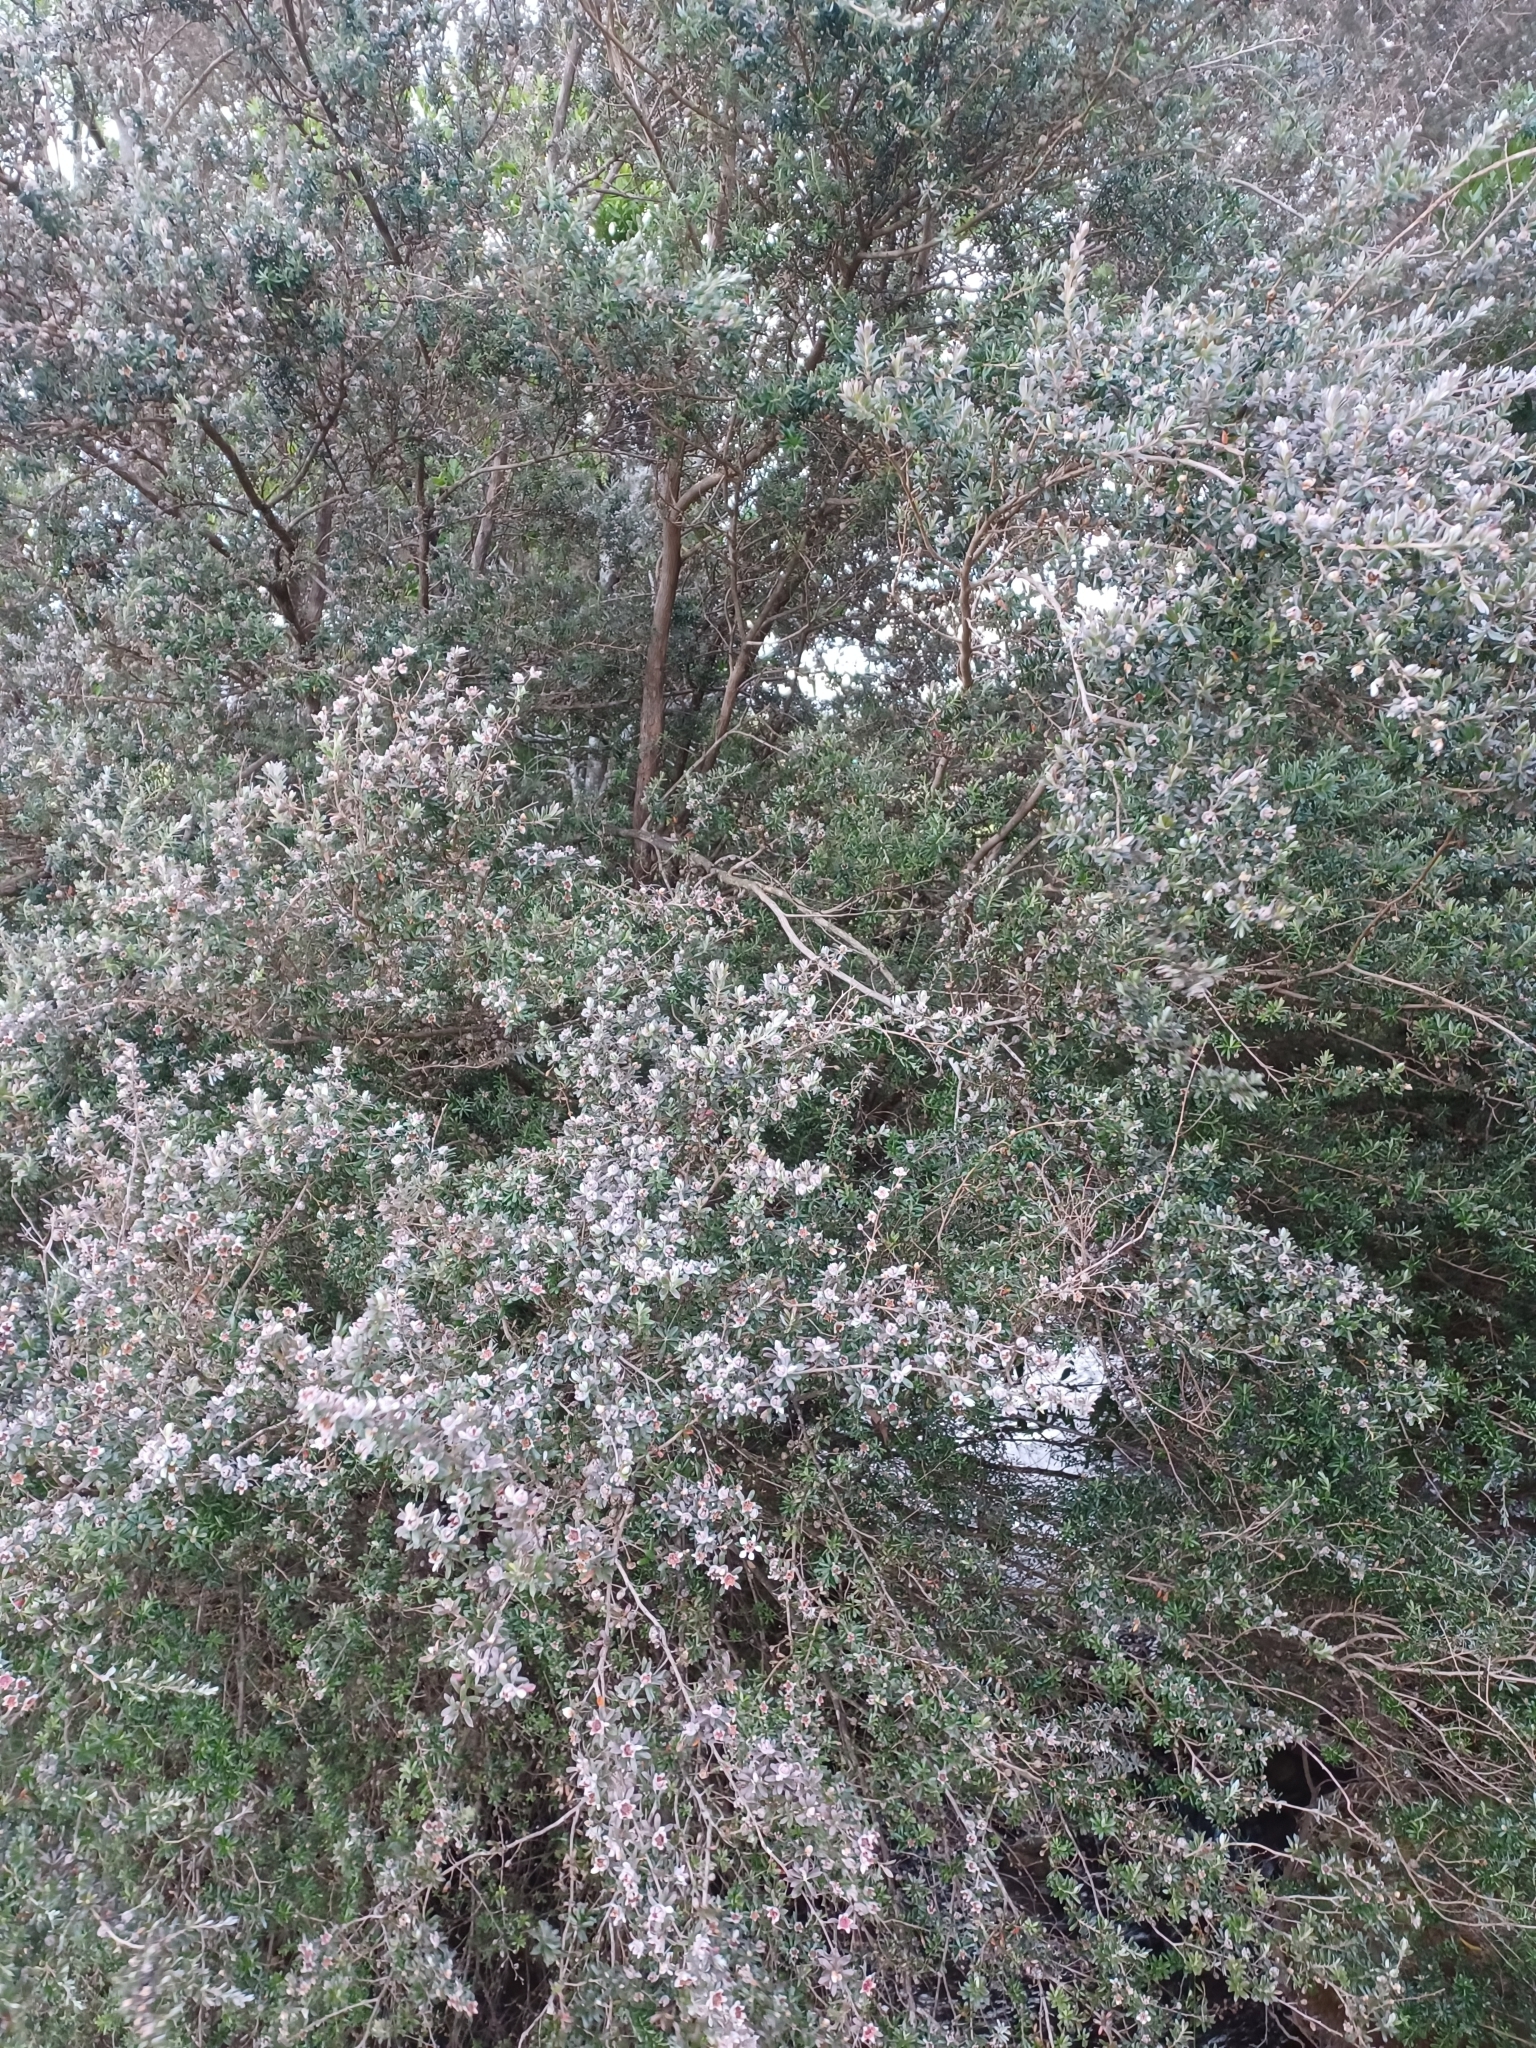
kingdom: Plantae
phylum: Tracheophyta
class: Magnoliopsida
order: Myrtales
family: Myrtaceae
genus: Leptospermum
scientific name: Leptospermum lanigerum
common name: Woolly tea-tree
